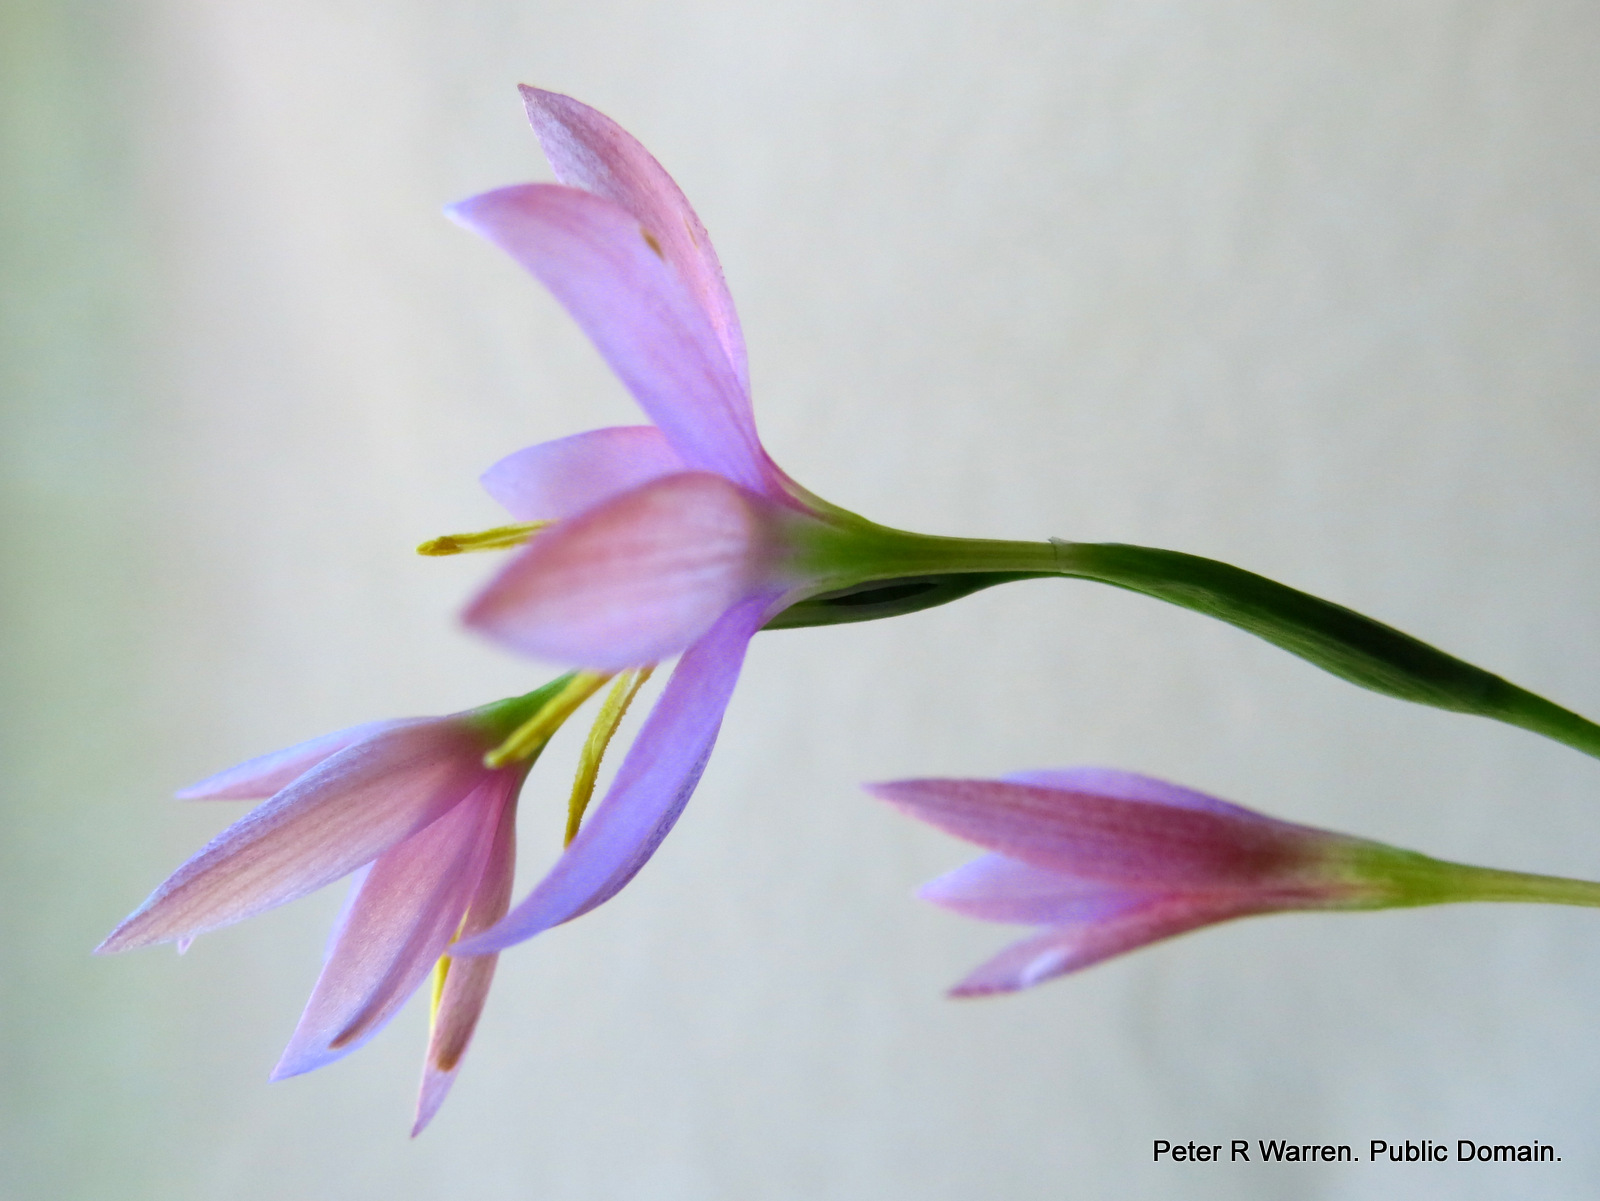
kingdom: Plantae
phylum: Tracheophyta
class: Liliopsida
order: Asparagales
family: Iridaceae
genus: Hesperantha
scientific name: Hesperantha baurii
